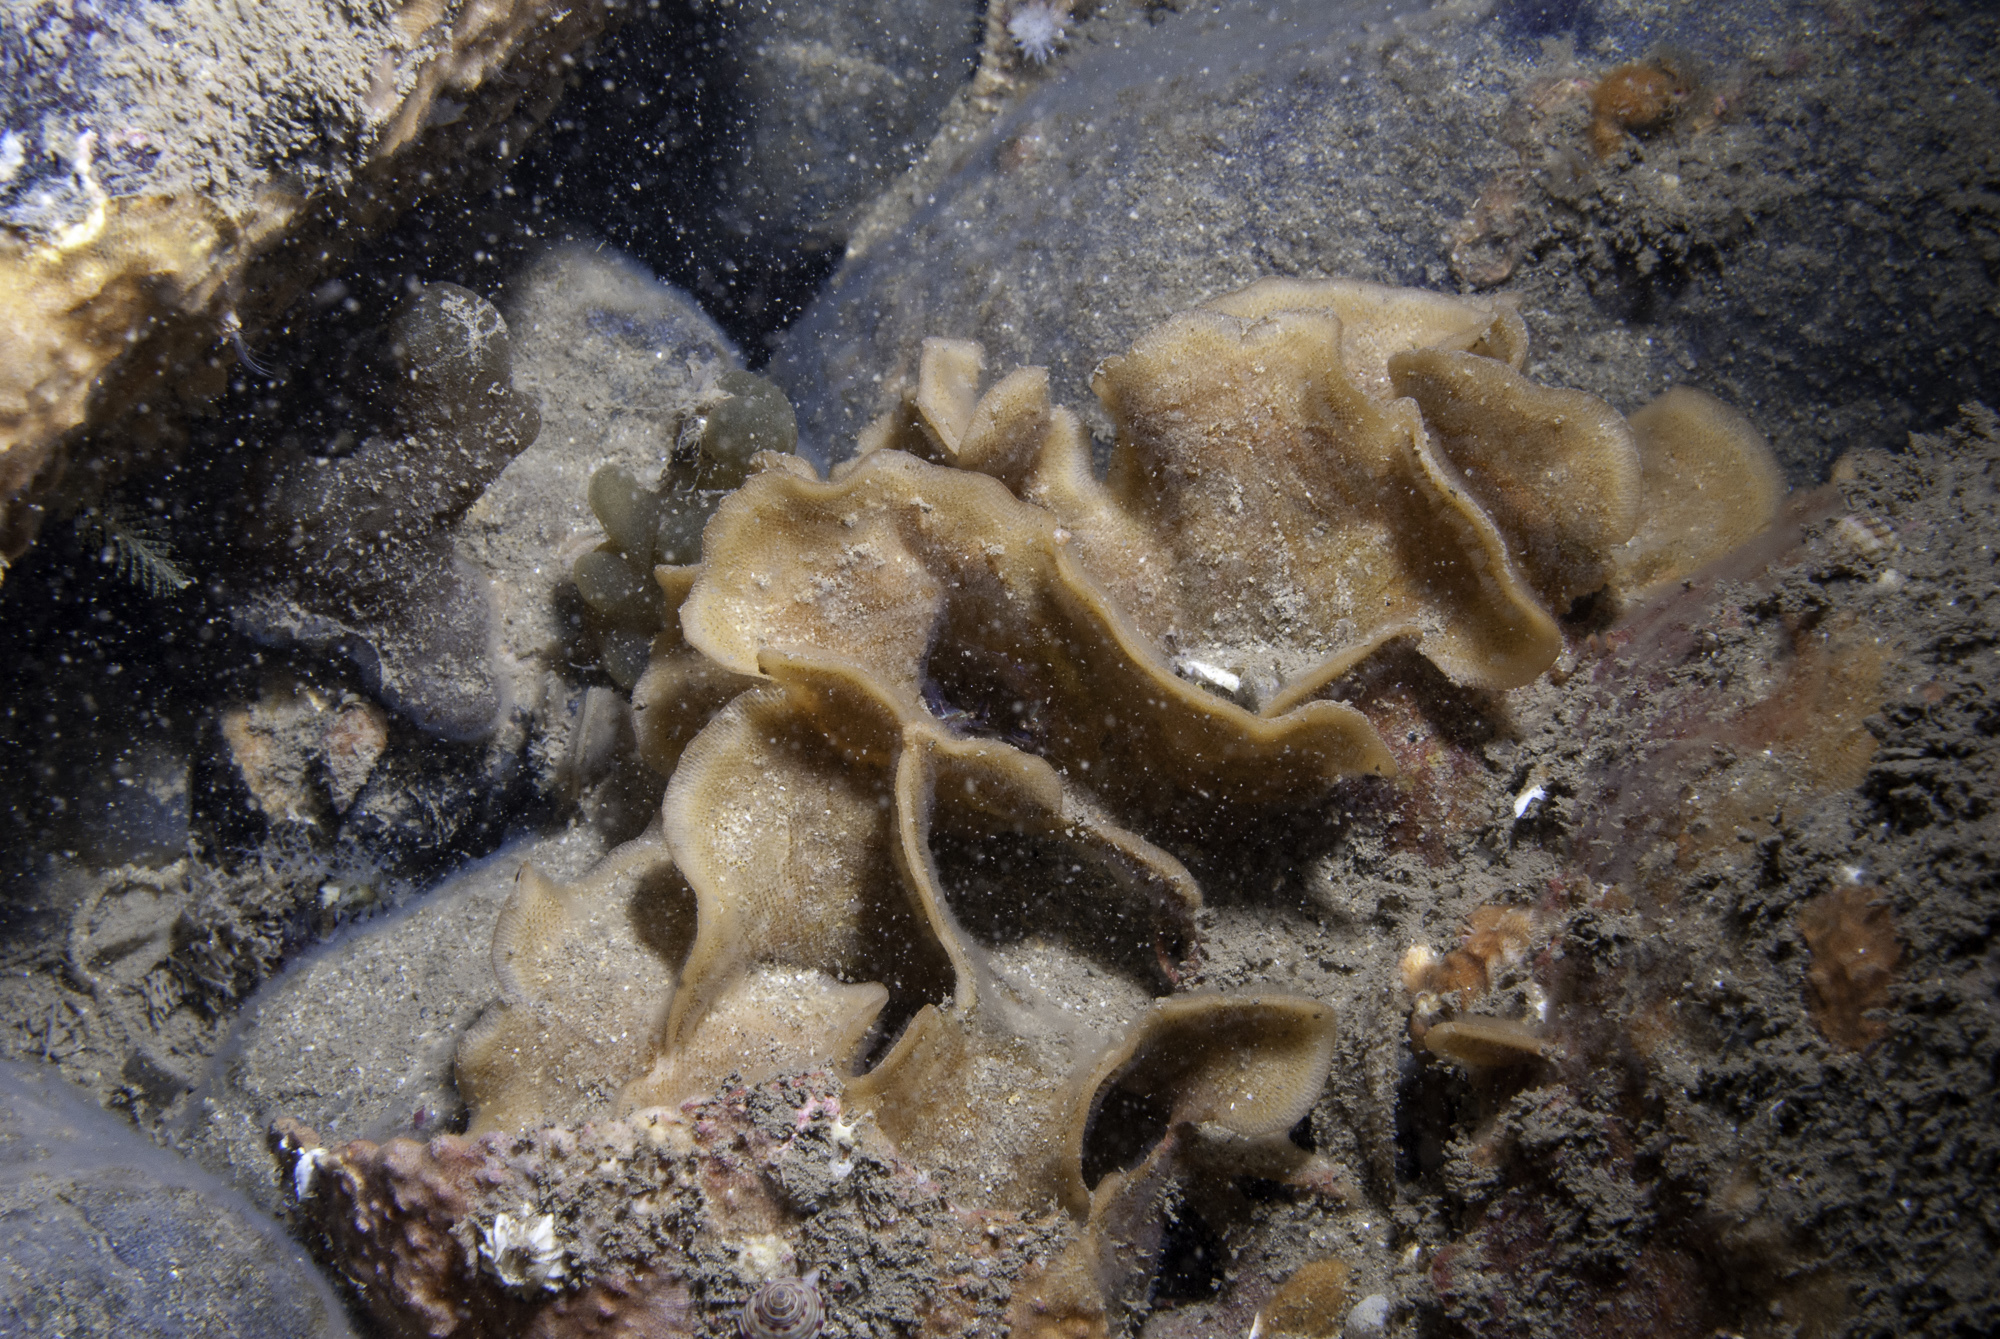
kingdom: Animalia
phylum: Bryozoa
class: Gymnolaemata
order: Cheilostomatida
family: Bitectiporidae
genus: Pentapora
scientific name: Pentapora foliacea
